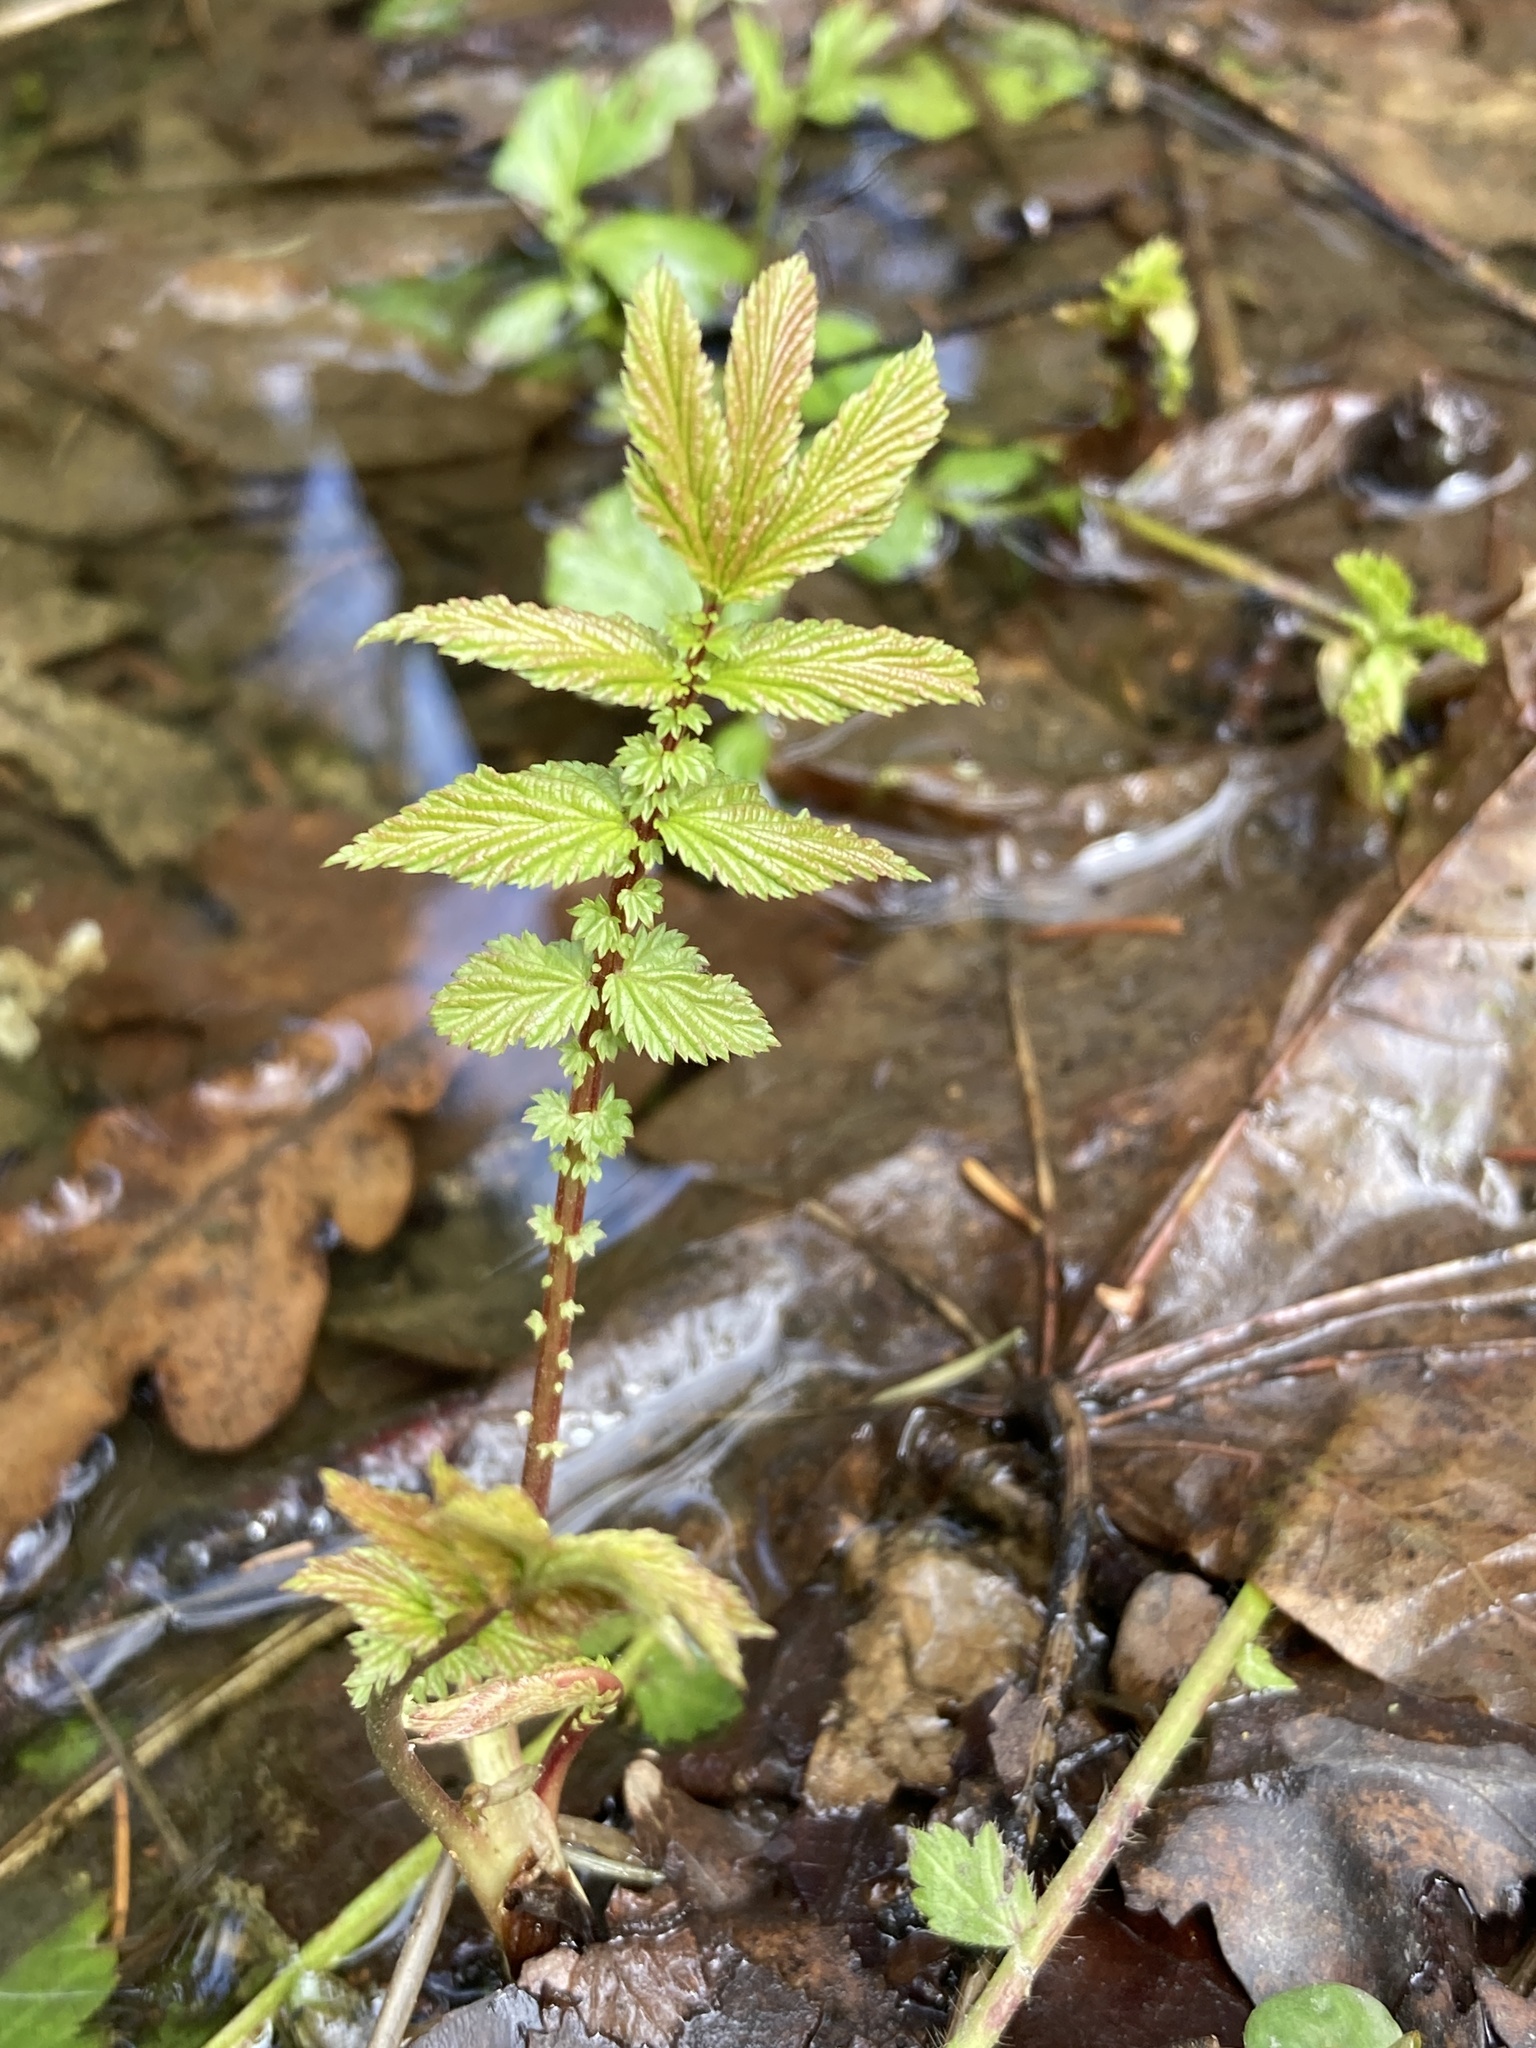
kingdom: Plantae
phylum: Tracheophyta
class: Magnoliopsida
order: Rosales
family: Rosaceae
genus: Filipendula
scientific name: Filipendula ulmaria
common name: Meadowsweet
